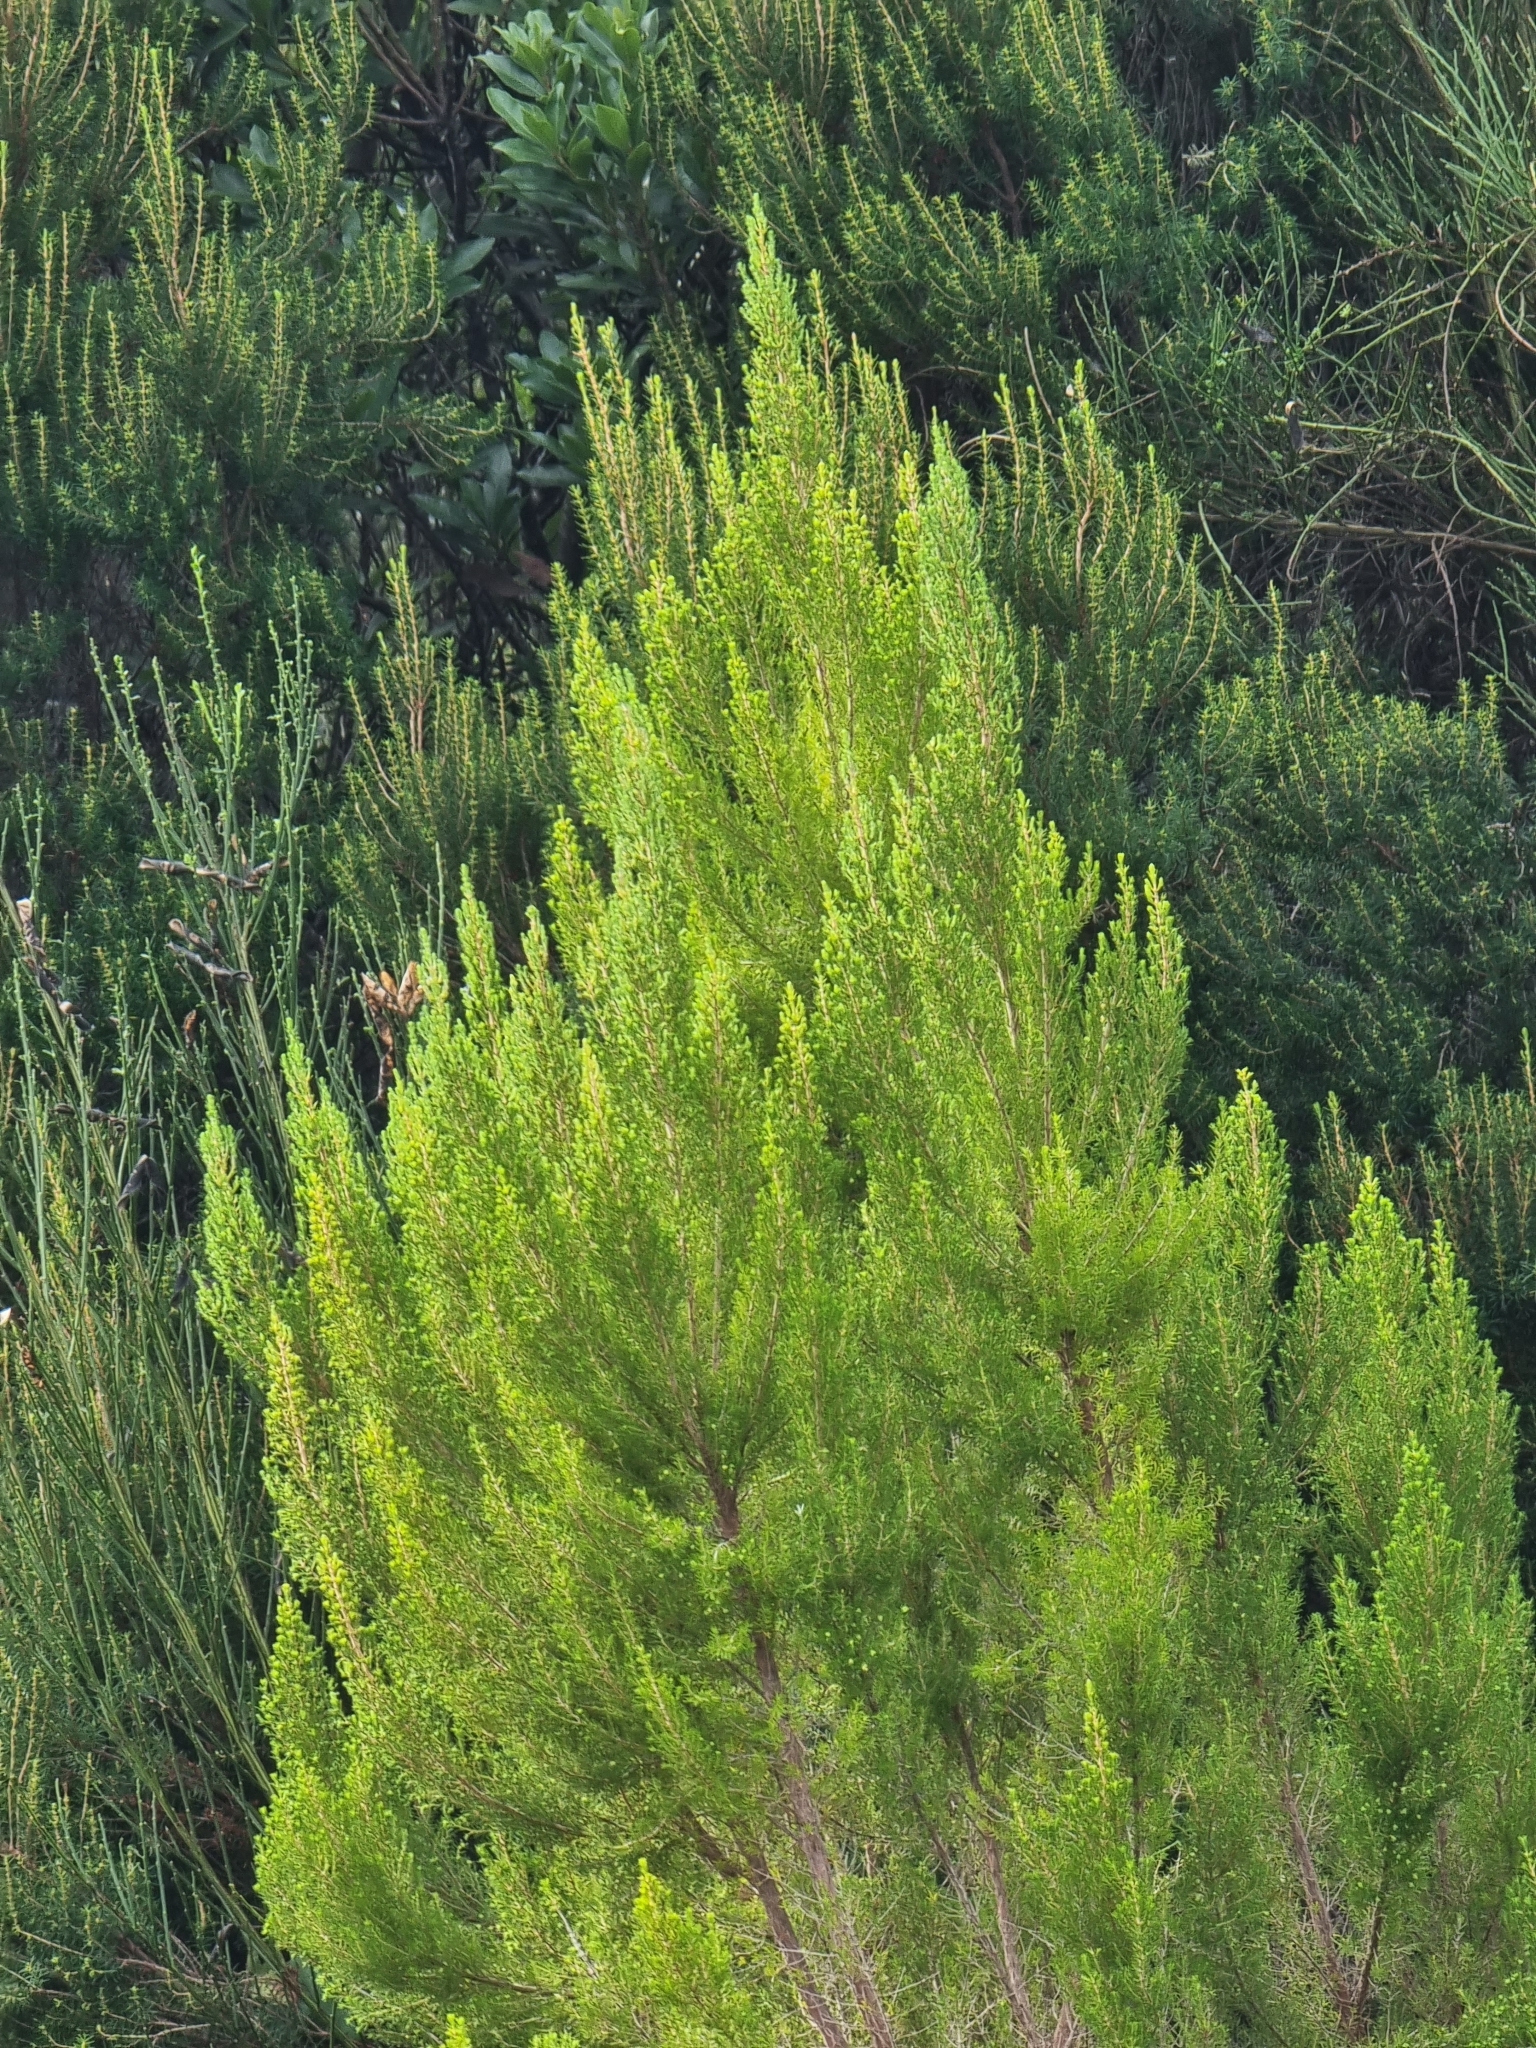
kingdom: Plantae
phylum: Tracheophyta
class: Magnoliopsida
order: Ericales
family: Ericaceae
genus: Erica
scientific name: Erica canariensis
